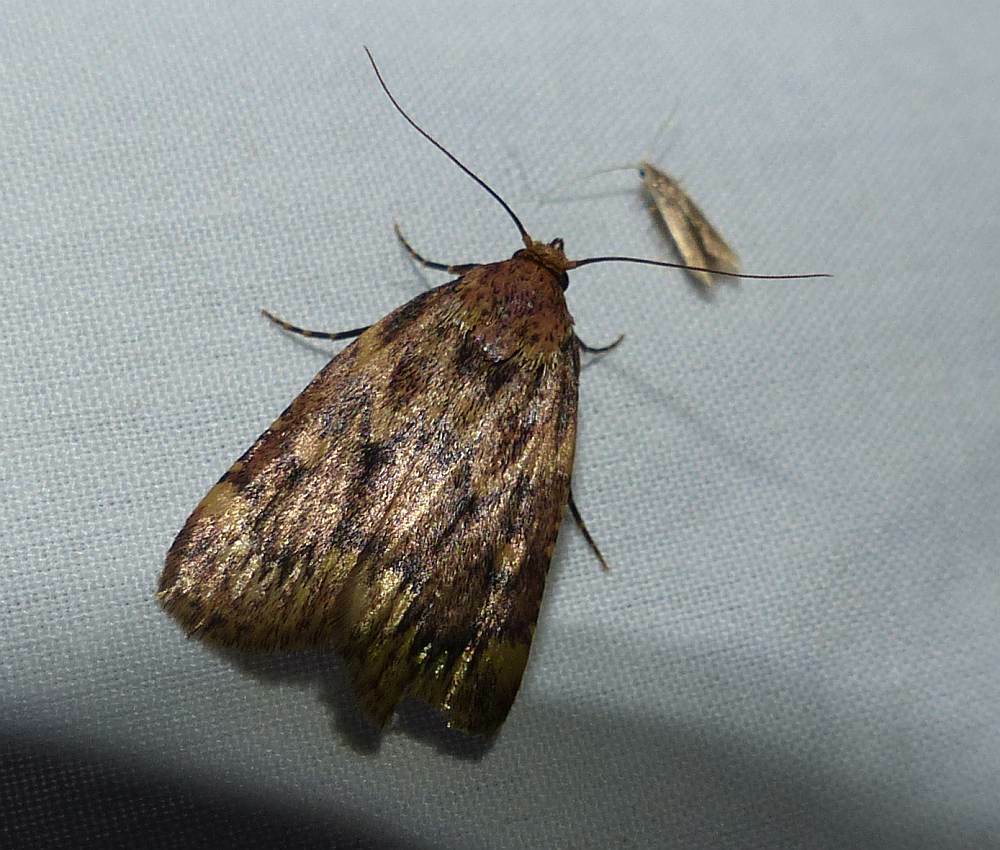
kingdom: Animalia
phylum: Arthropoda
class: Insecta
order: Lepidoptera
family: Pyralidae
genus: Aglossa
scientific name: Aglossa cuprina
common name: Grease moth
